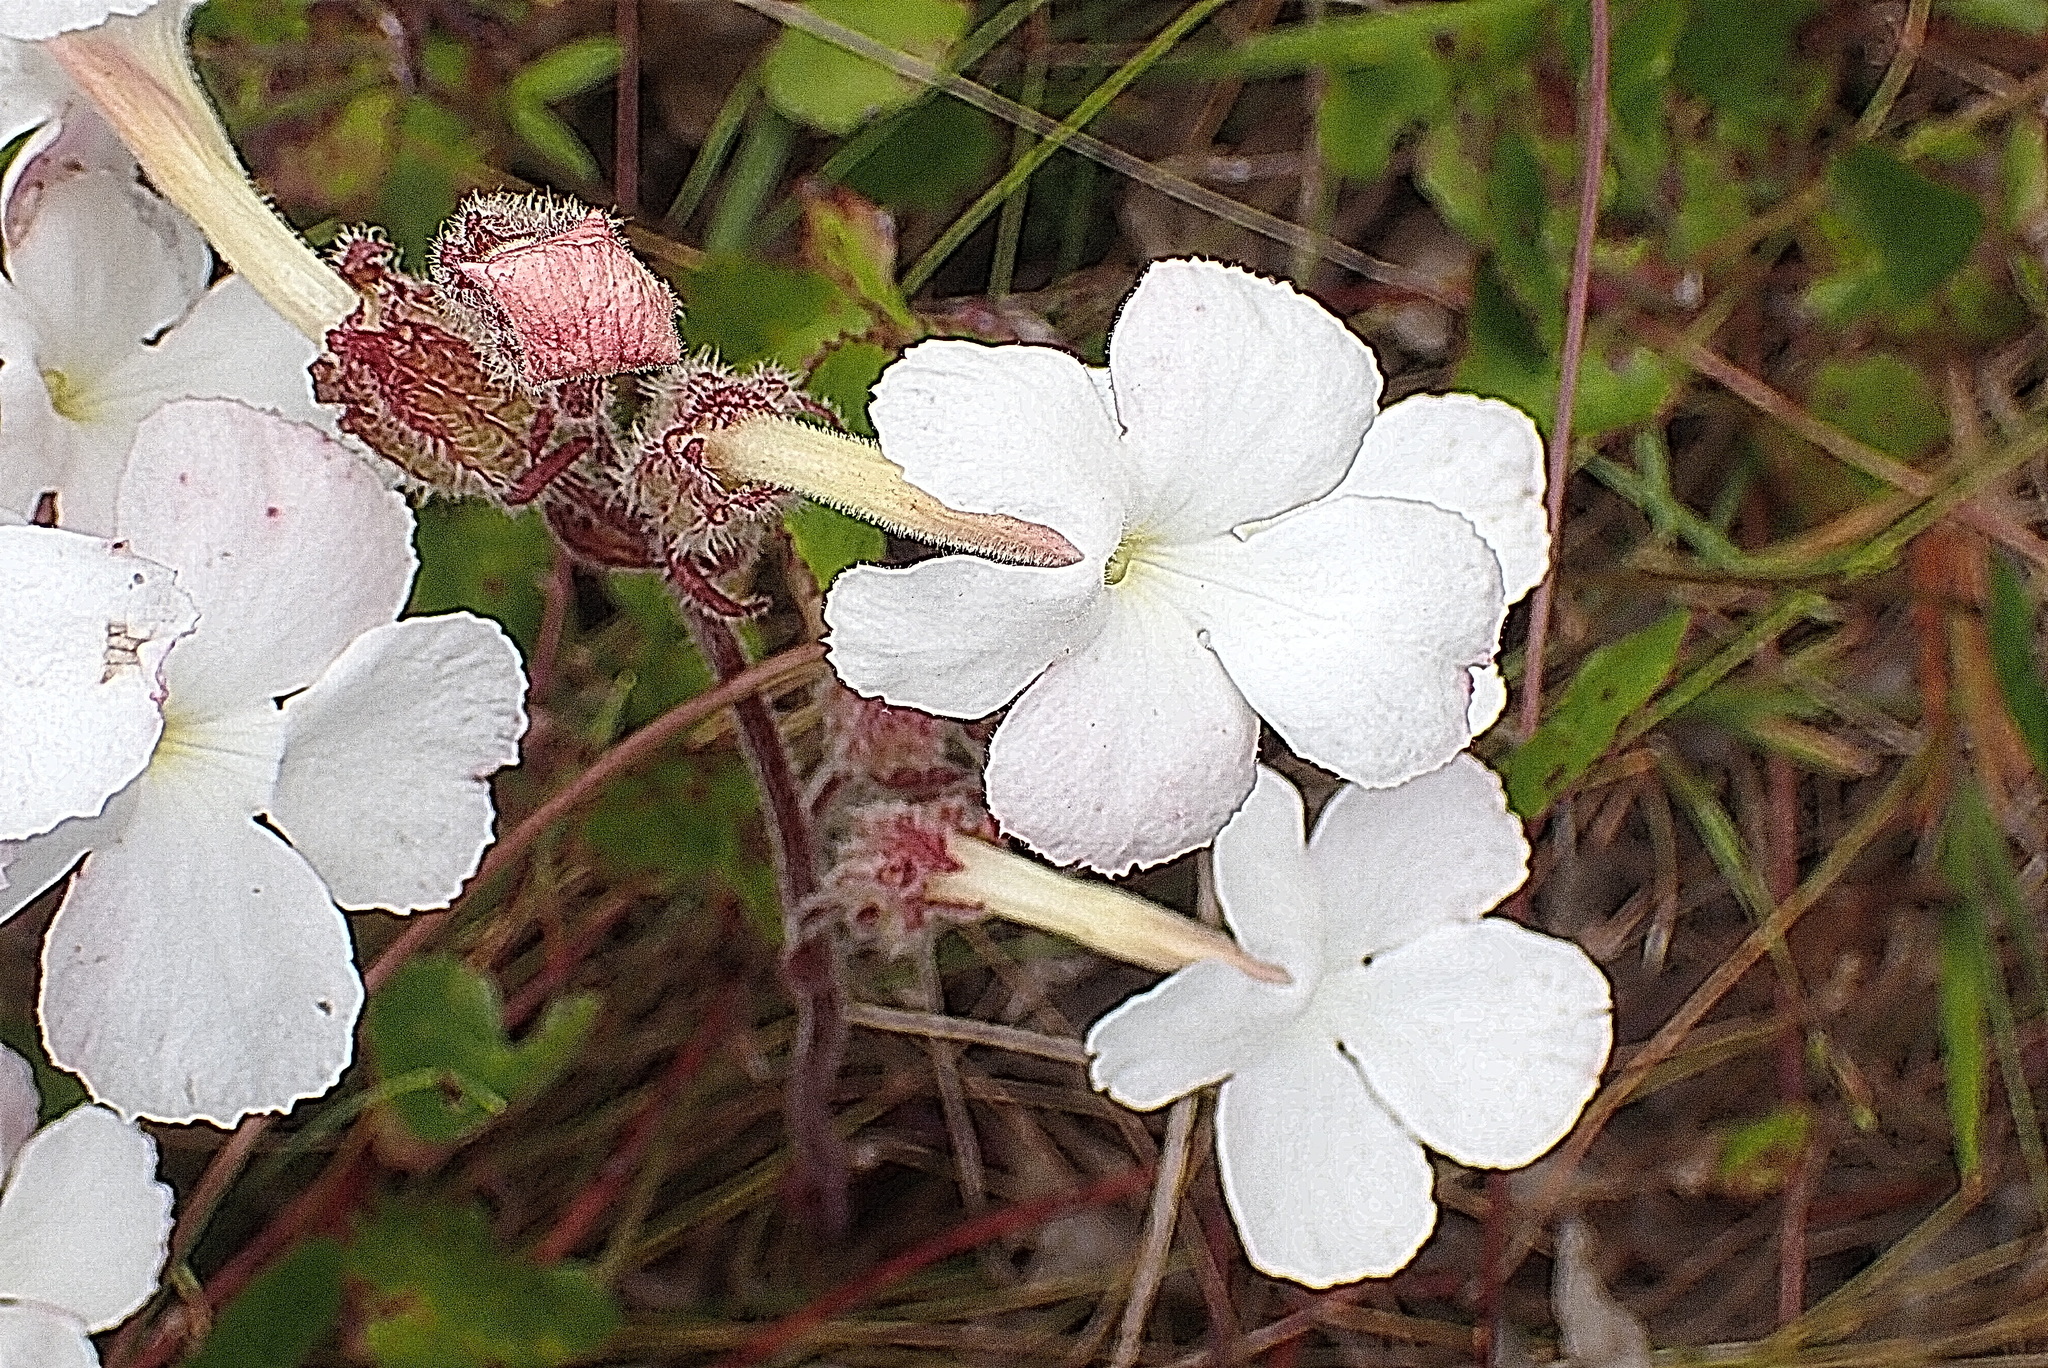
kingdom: Plantae
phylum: Tracheophyta
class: Magnoliopsida
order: Lamiales
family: Orobanchaceae
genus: Harveya
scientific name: Harveya capensis
